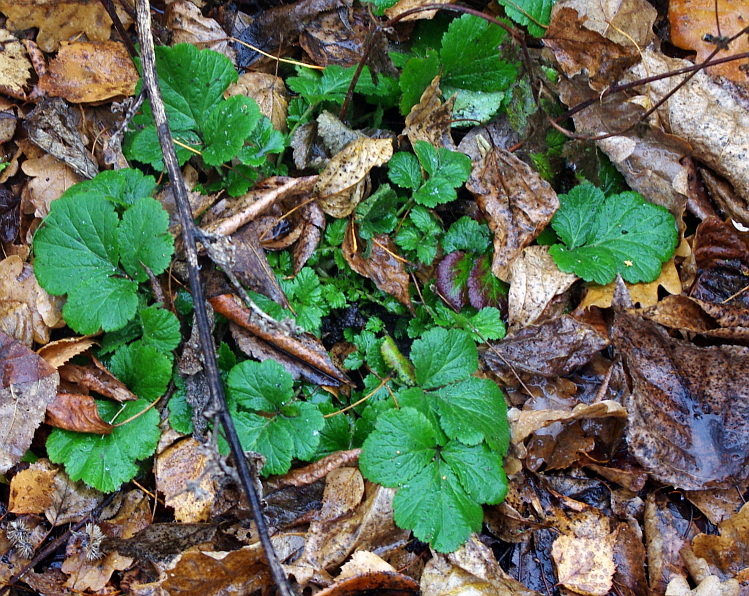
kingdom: Plantae
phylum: Tracheophyta
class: Magnoliopsida
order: Rosales
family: Rosaceae
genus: Geum
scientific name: Geum
